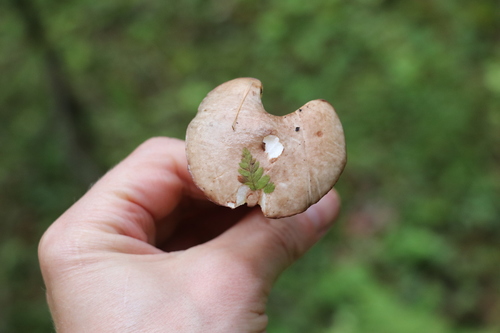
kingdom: Fungi
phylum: Basidiomycota
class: Agaricomycetes
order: Boletales
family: Suillaceae
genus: Suillus
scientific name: Suillus placidus
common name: Slippery white bolete
